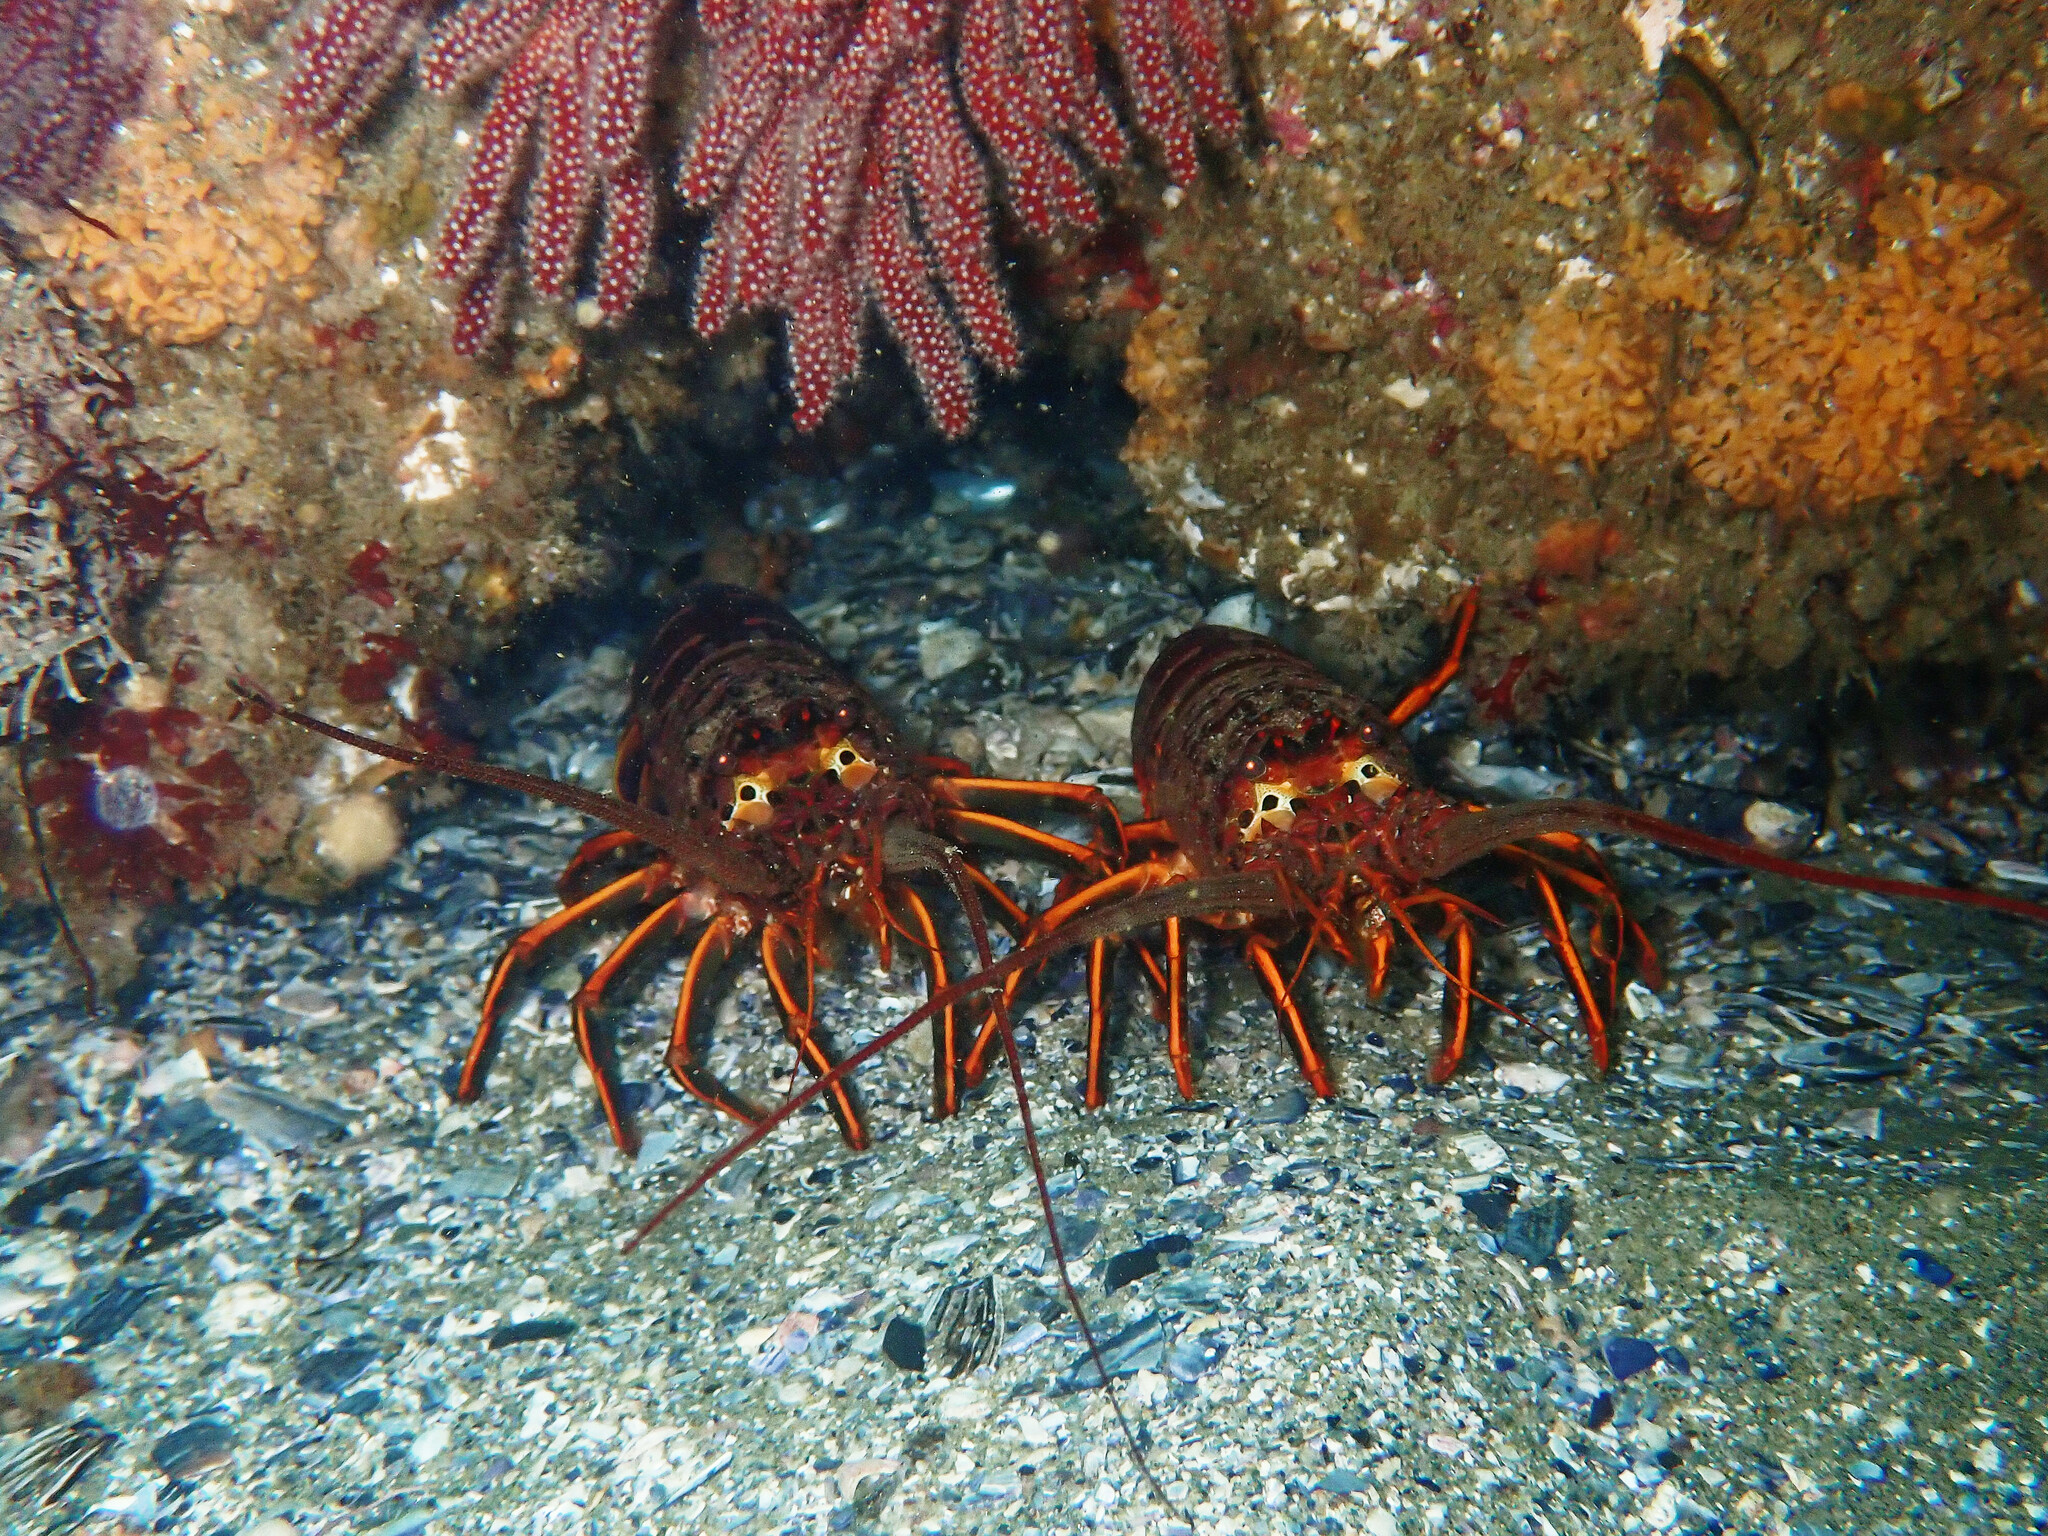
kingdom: Animalia
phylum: Arthropoda
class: Malacostraca
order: Decapoda
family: Palinuridae
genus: Panulirus
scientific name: Panulirus interruptus
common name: California spiny lobster
